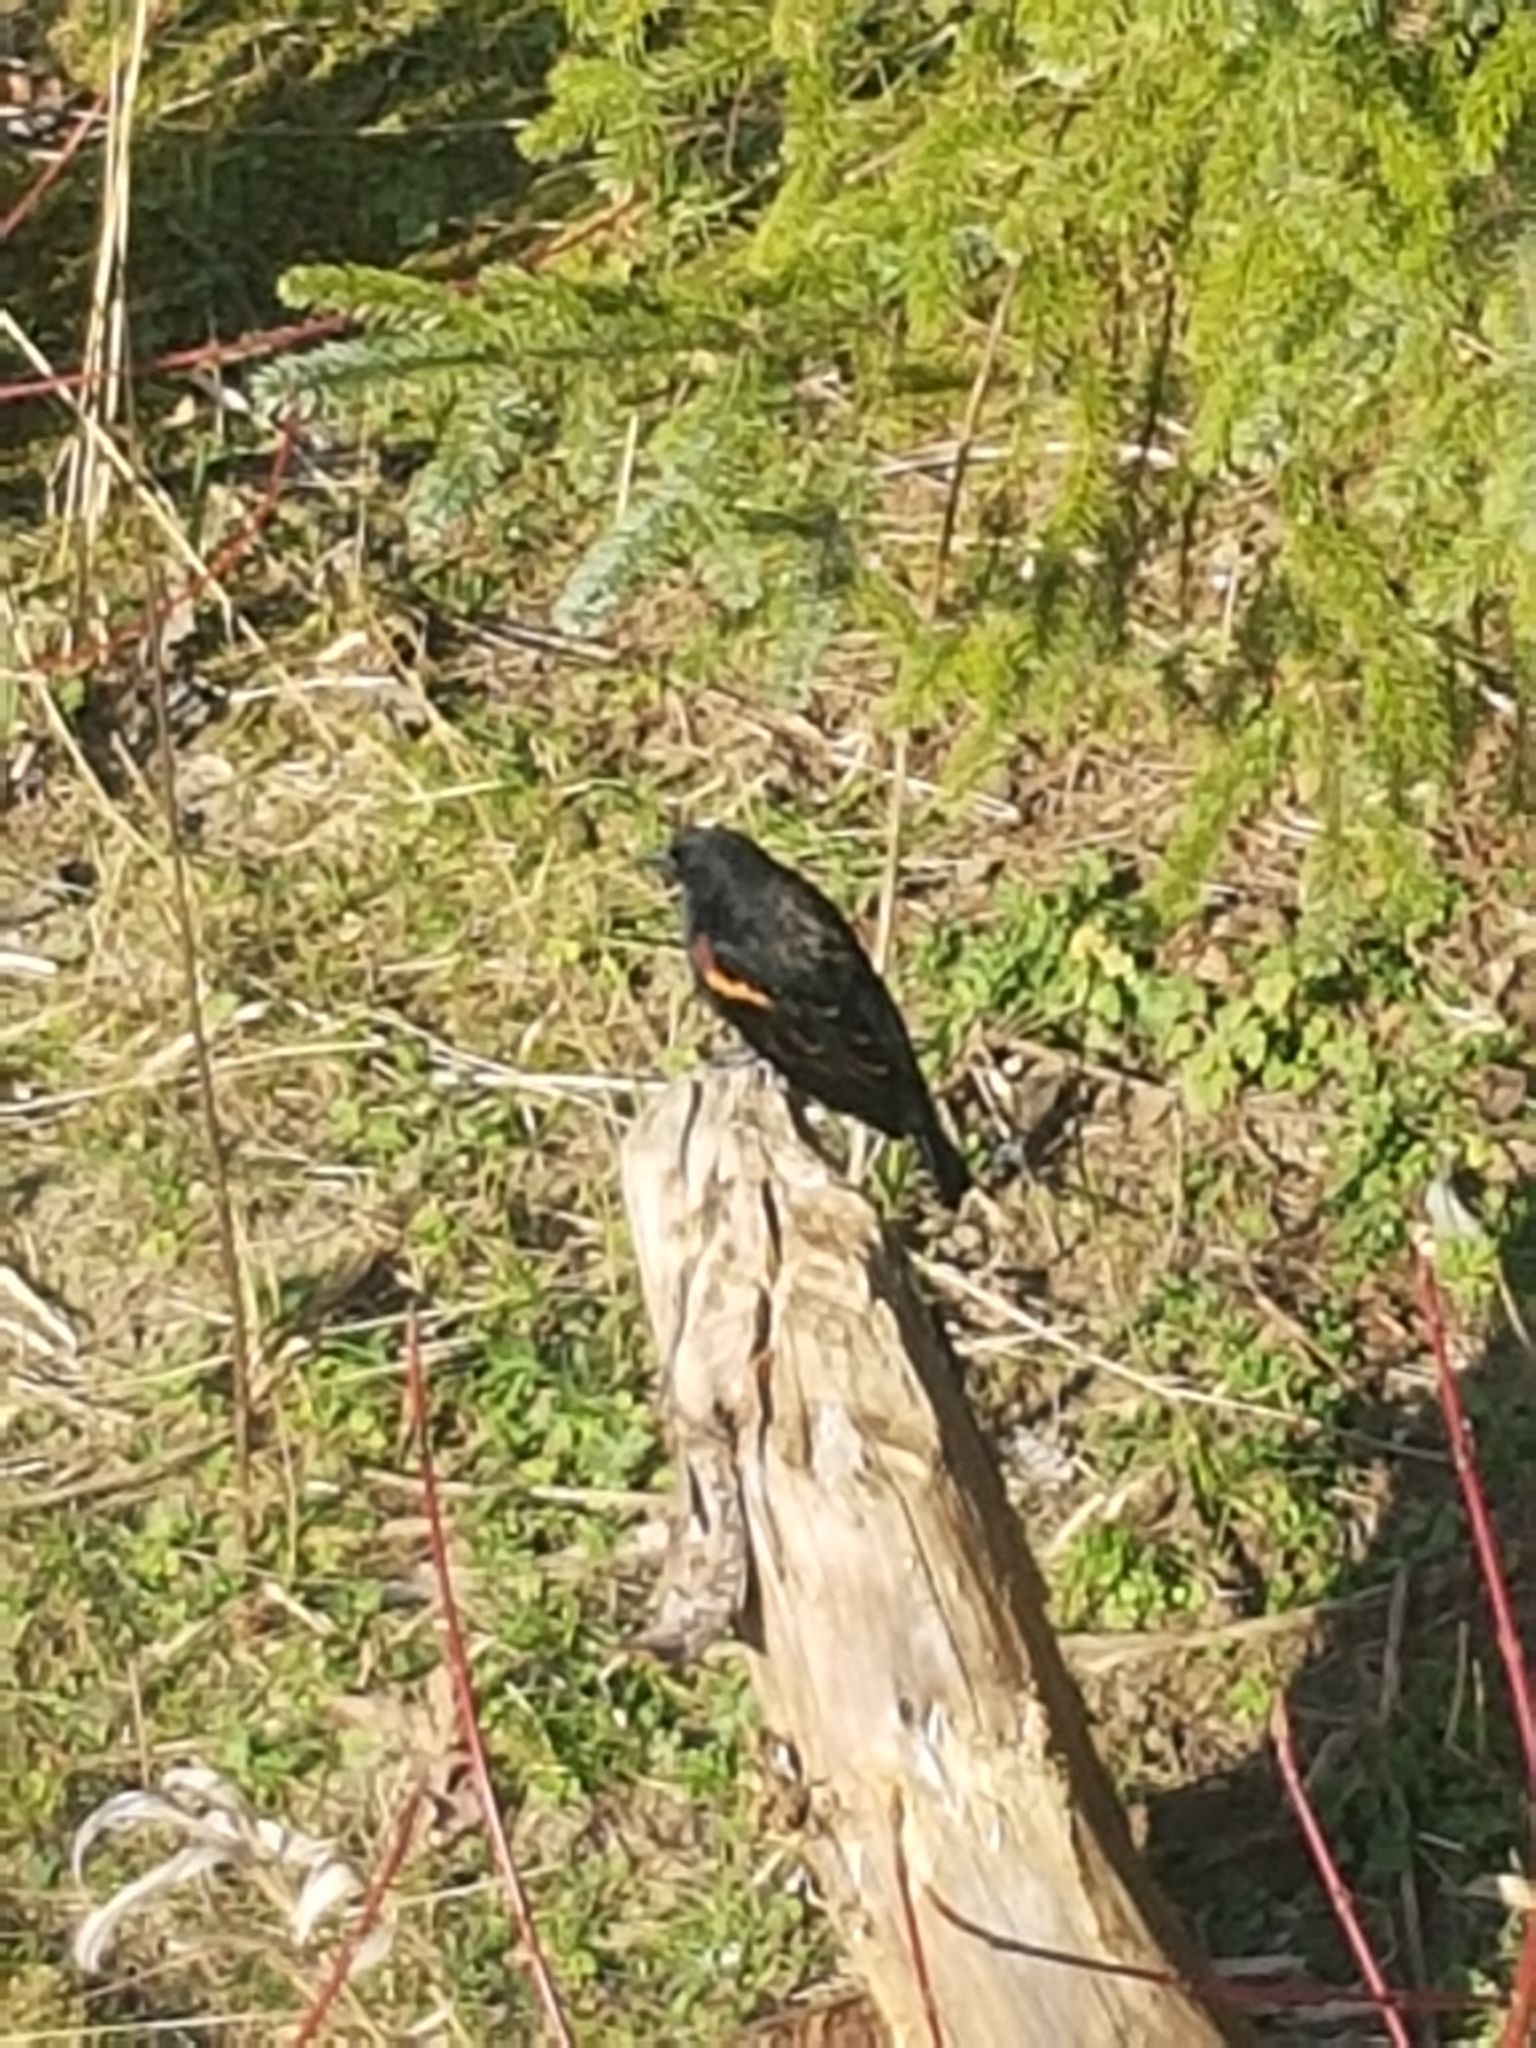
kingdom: Animalia
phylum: Chordata
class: Aves
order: Passeriformes
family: Icteridae
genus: Agelaius
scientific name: Agelaius phoeniceus
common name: Red-winged blackbird
